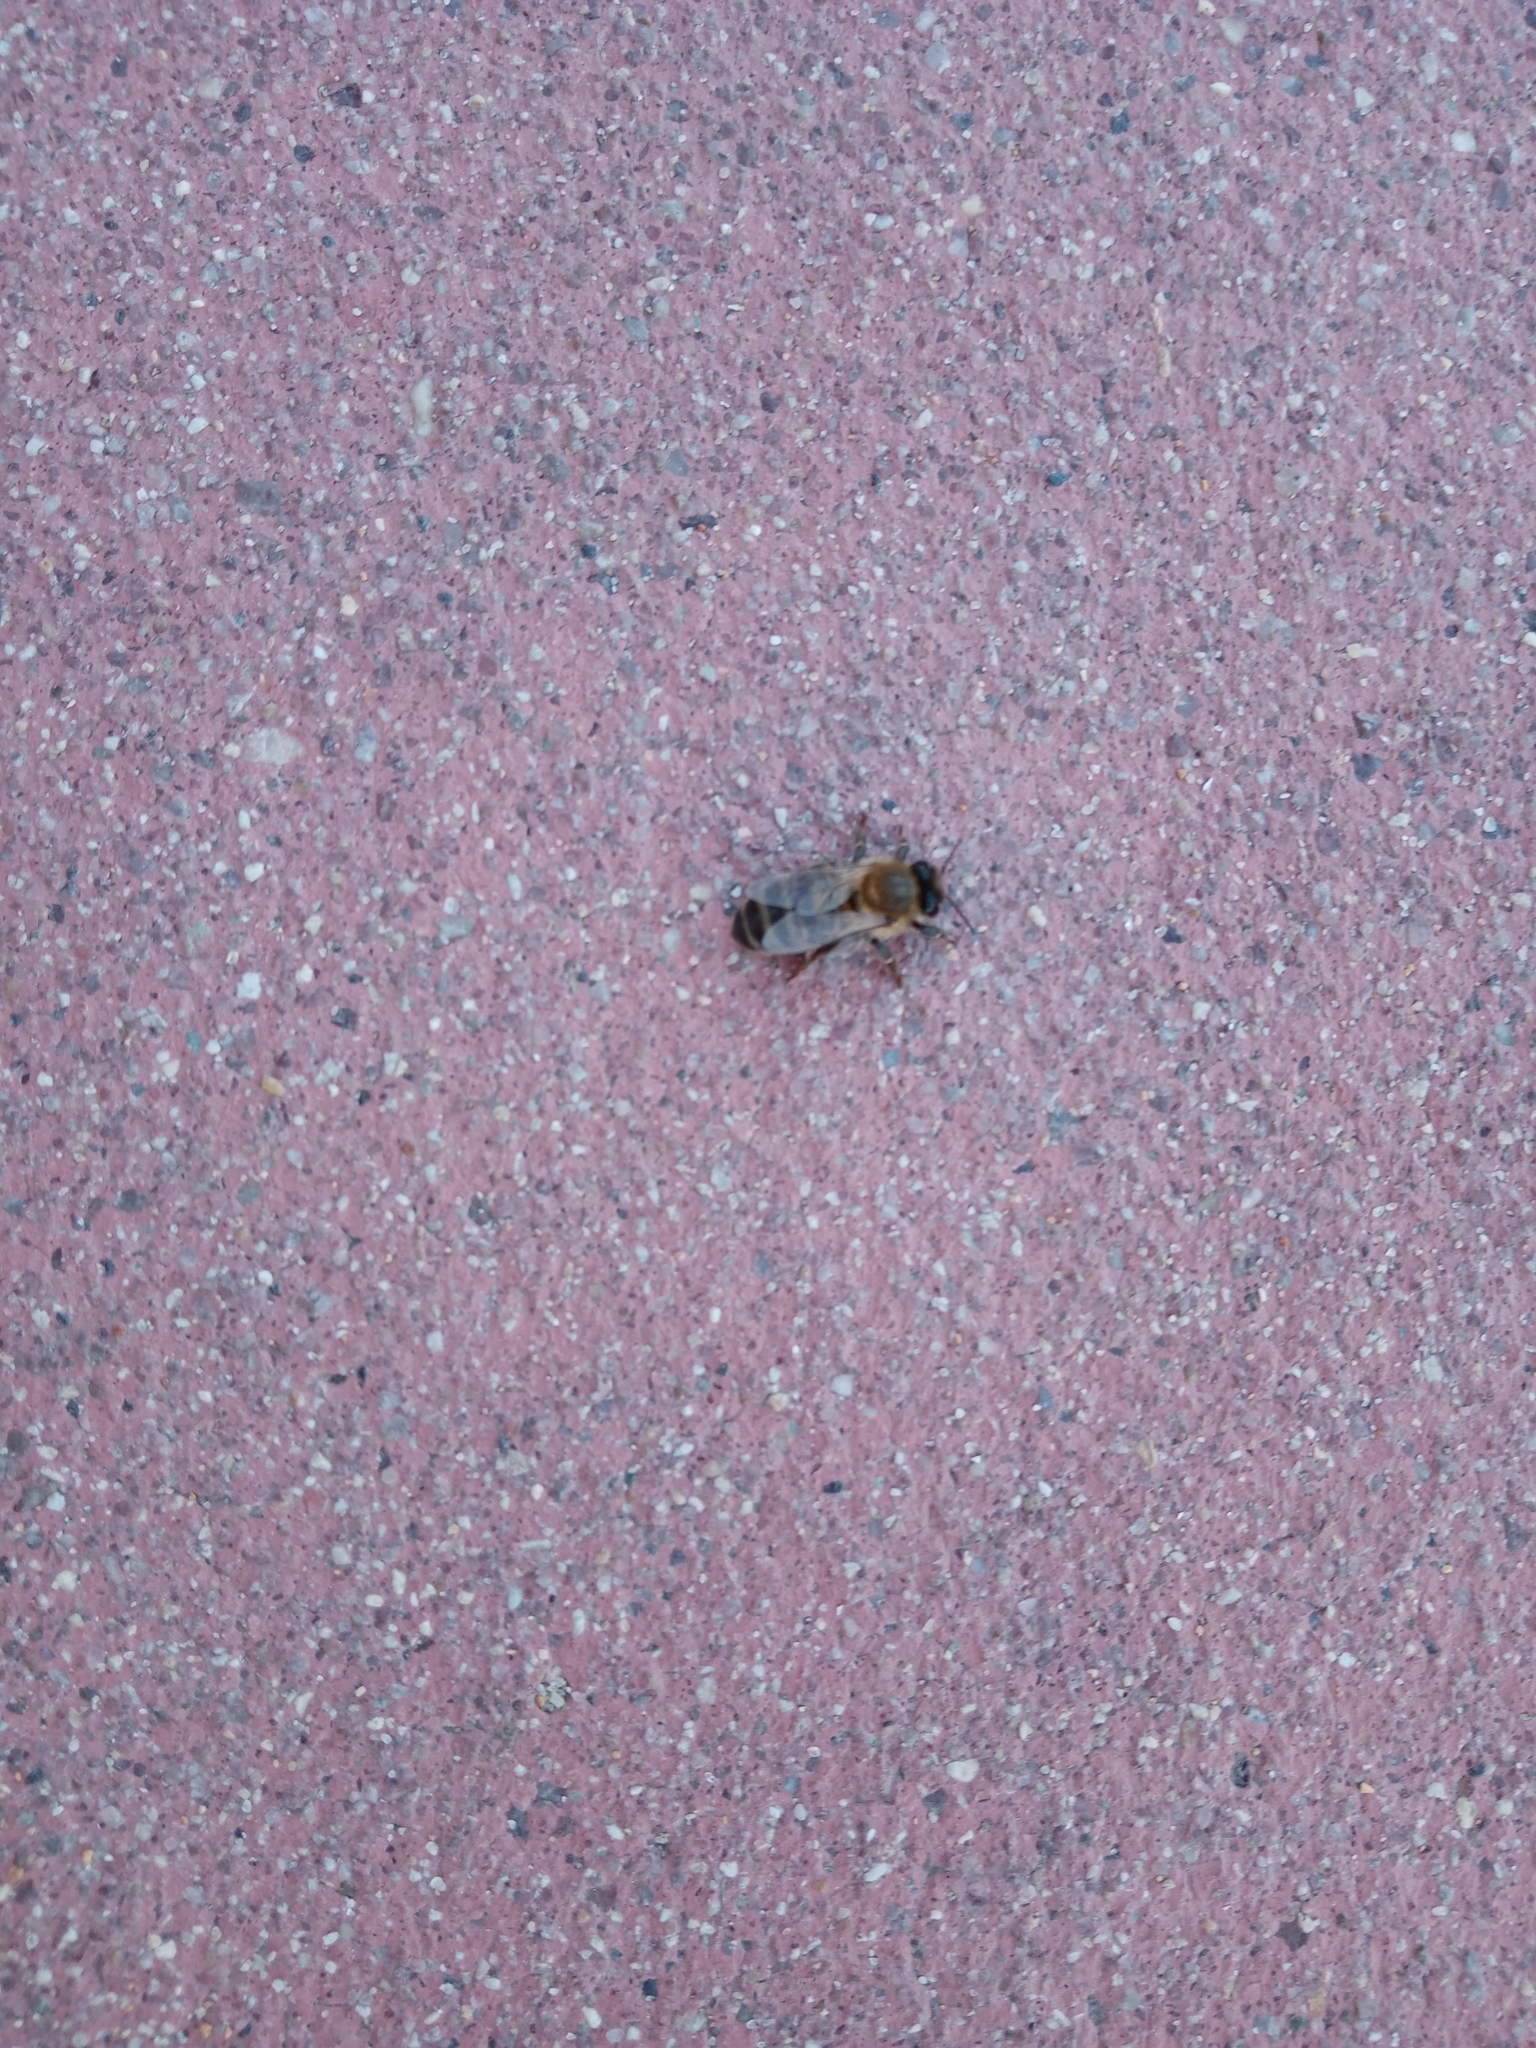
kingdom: Animalia
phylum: Arthropoda
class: Insecta
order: Hymenoptera
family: Apidae
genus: Apis
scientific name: Apis mellifera
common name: Honey bee
